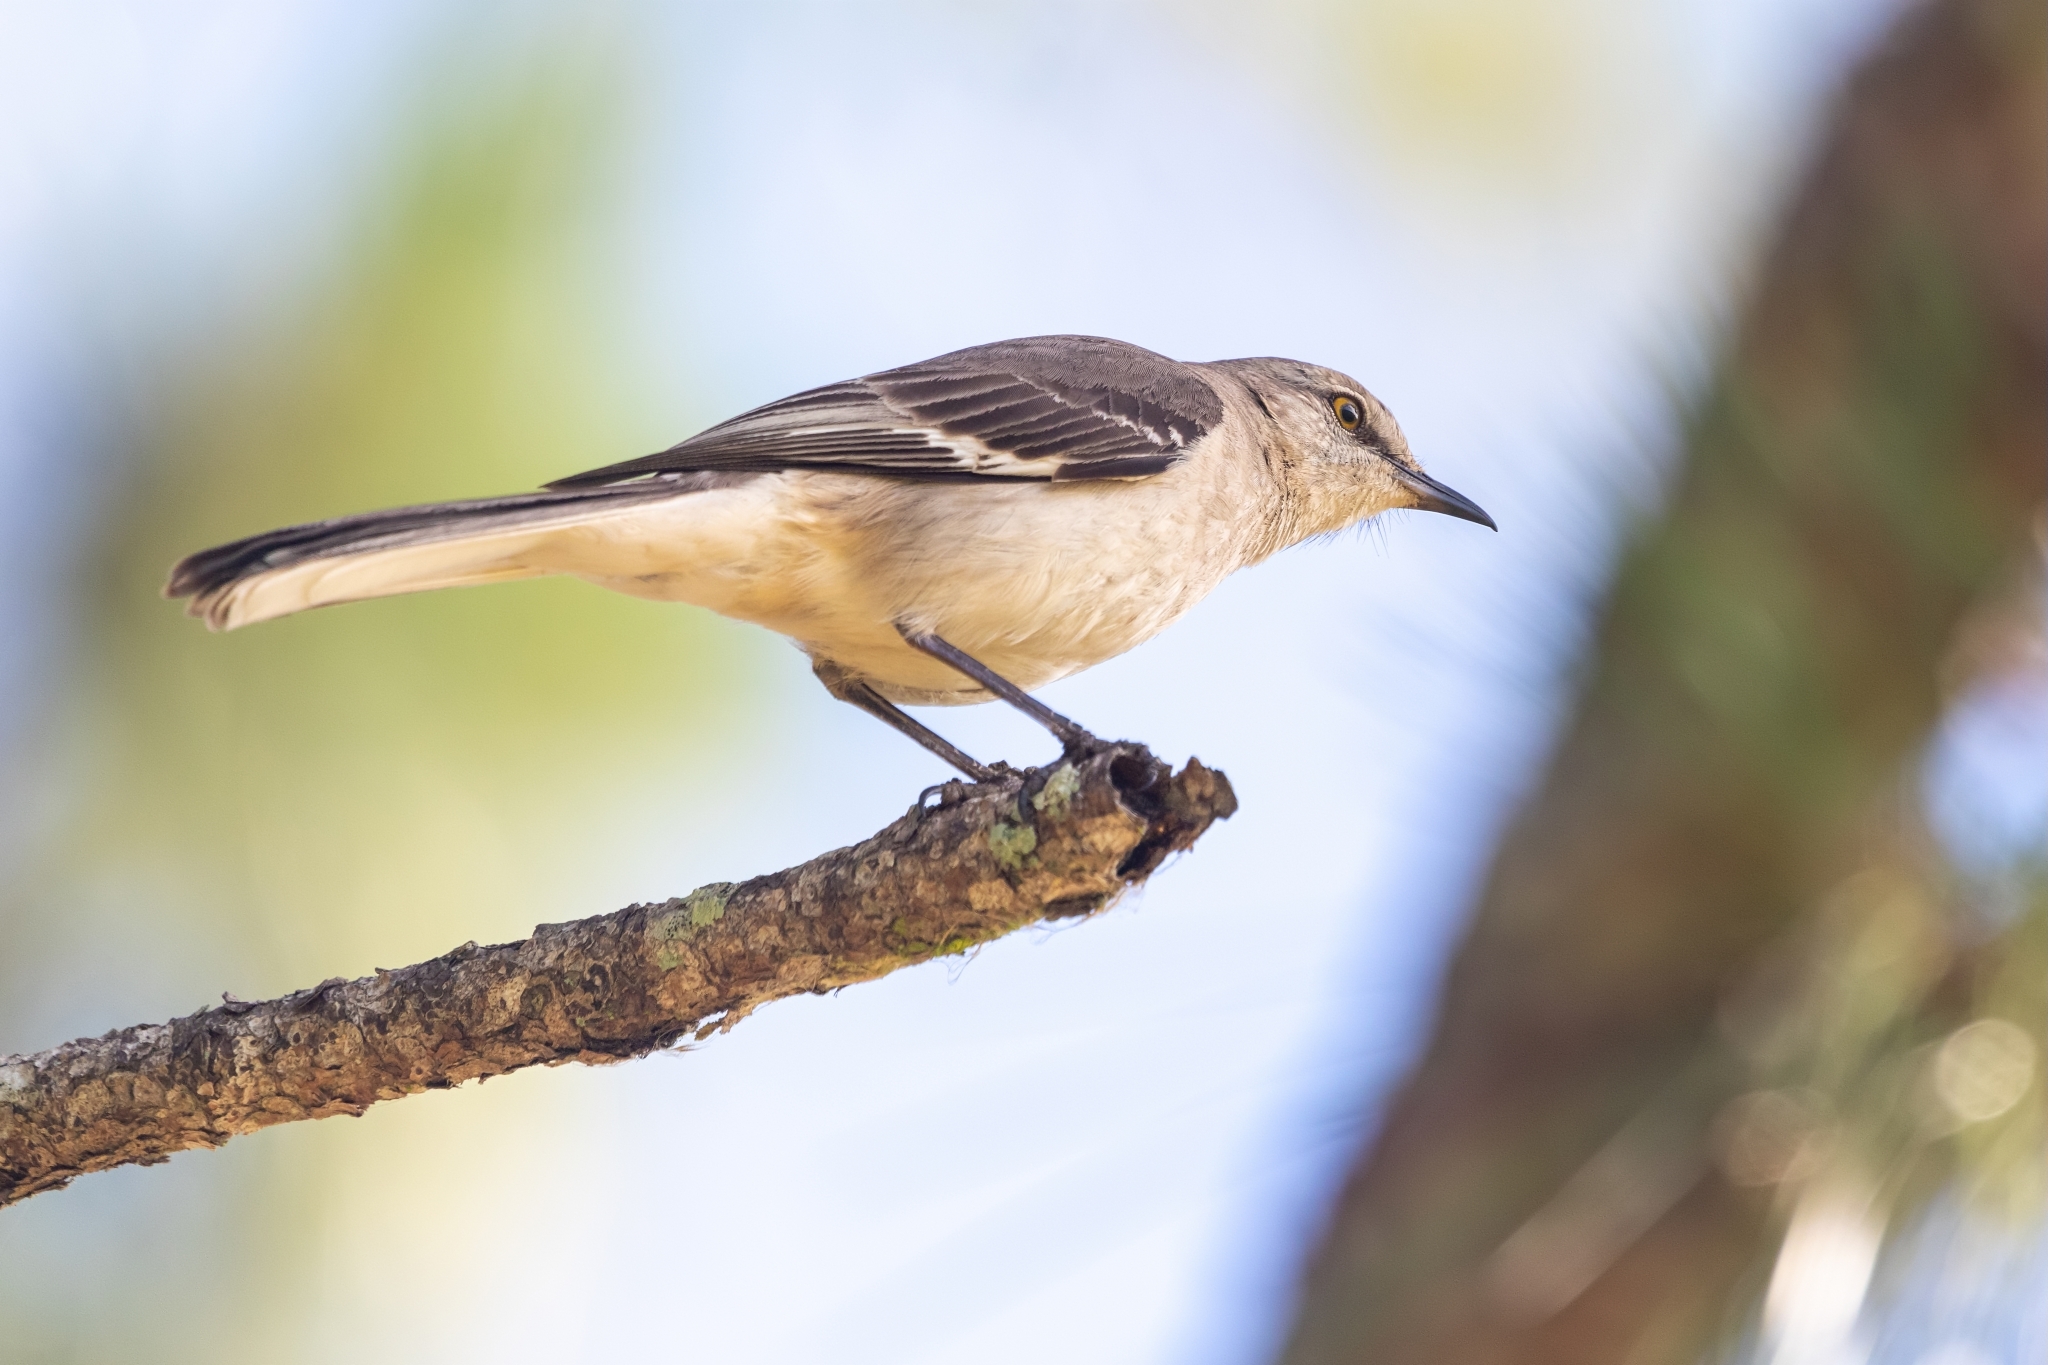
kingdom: Animalia
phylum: Chordata
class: Aves
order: Passeriformes
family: Mimidae
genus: Mimus
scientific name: Mimus polyglottos
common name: Northern mockingbird
